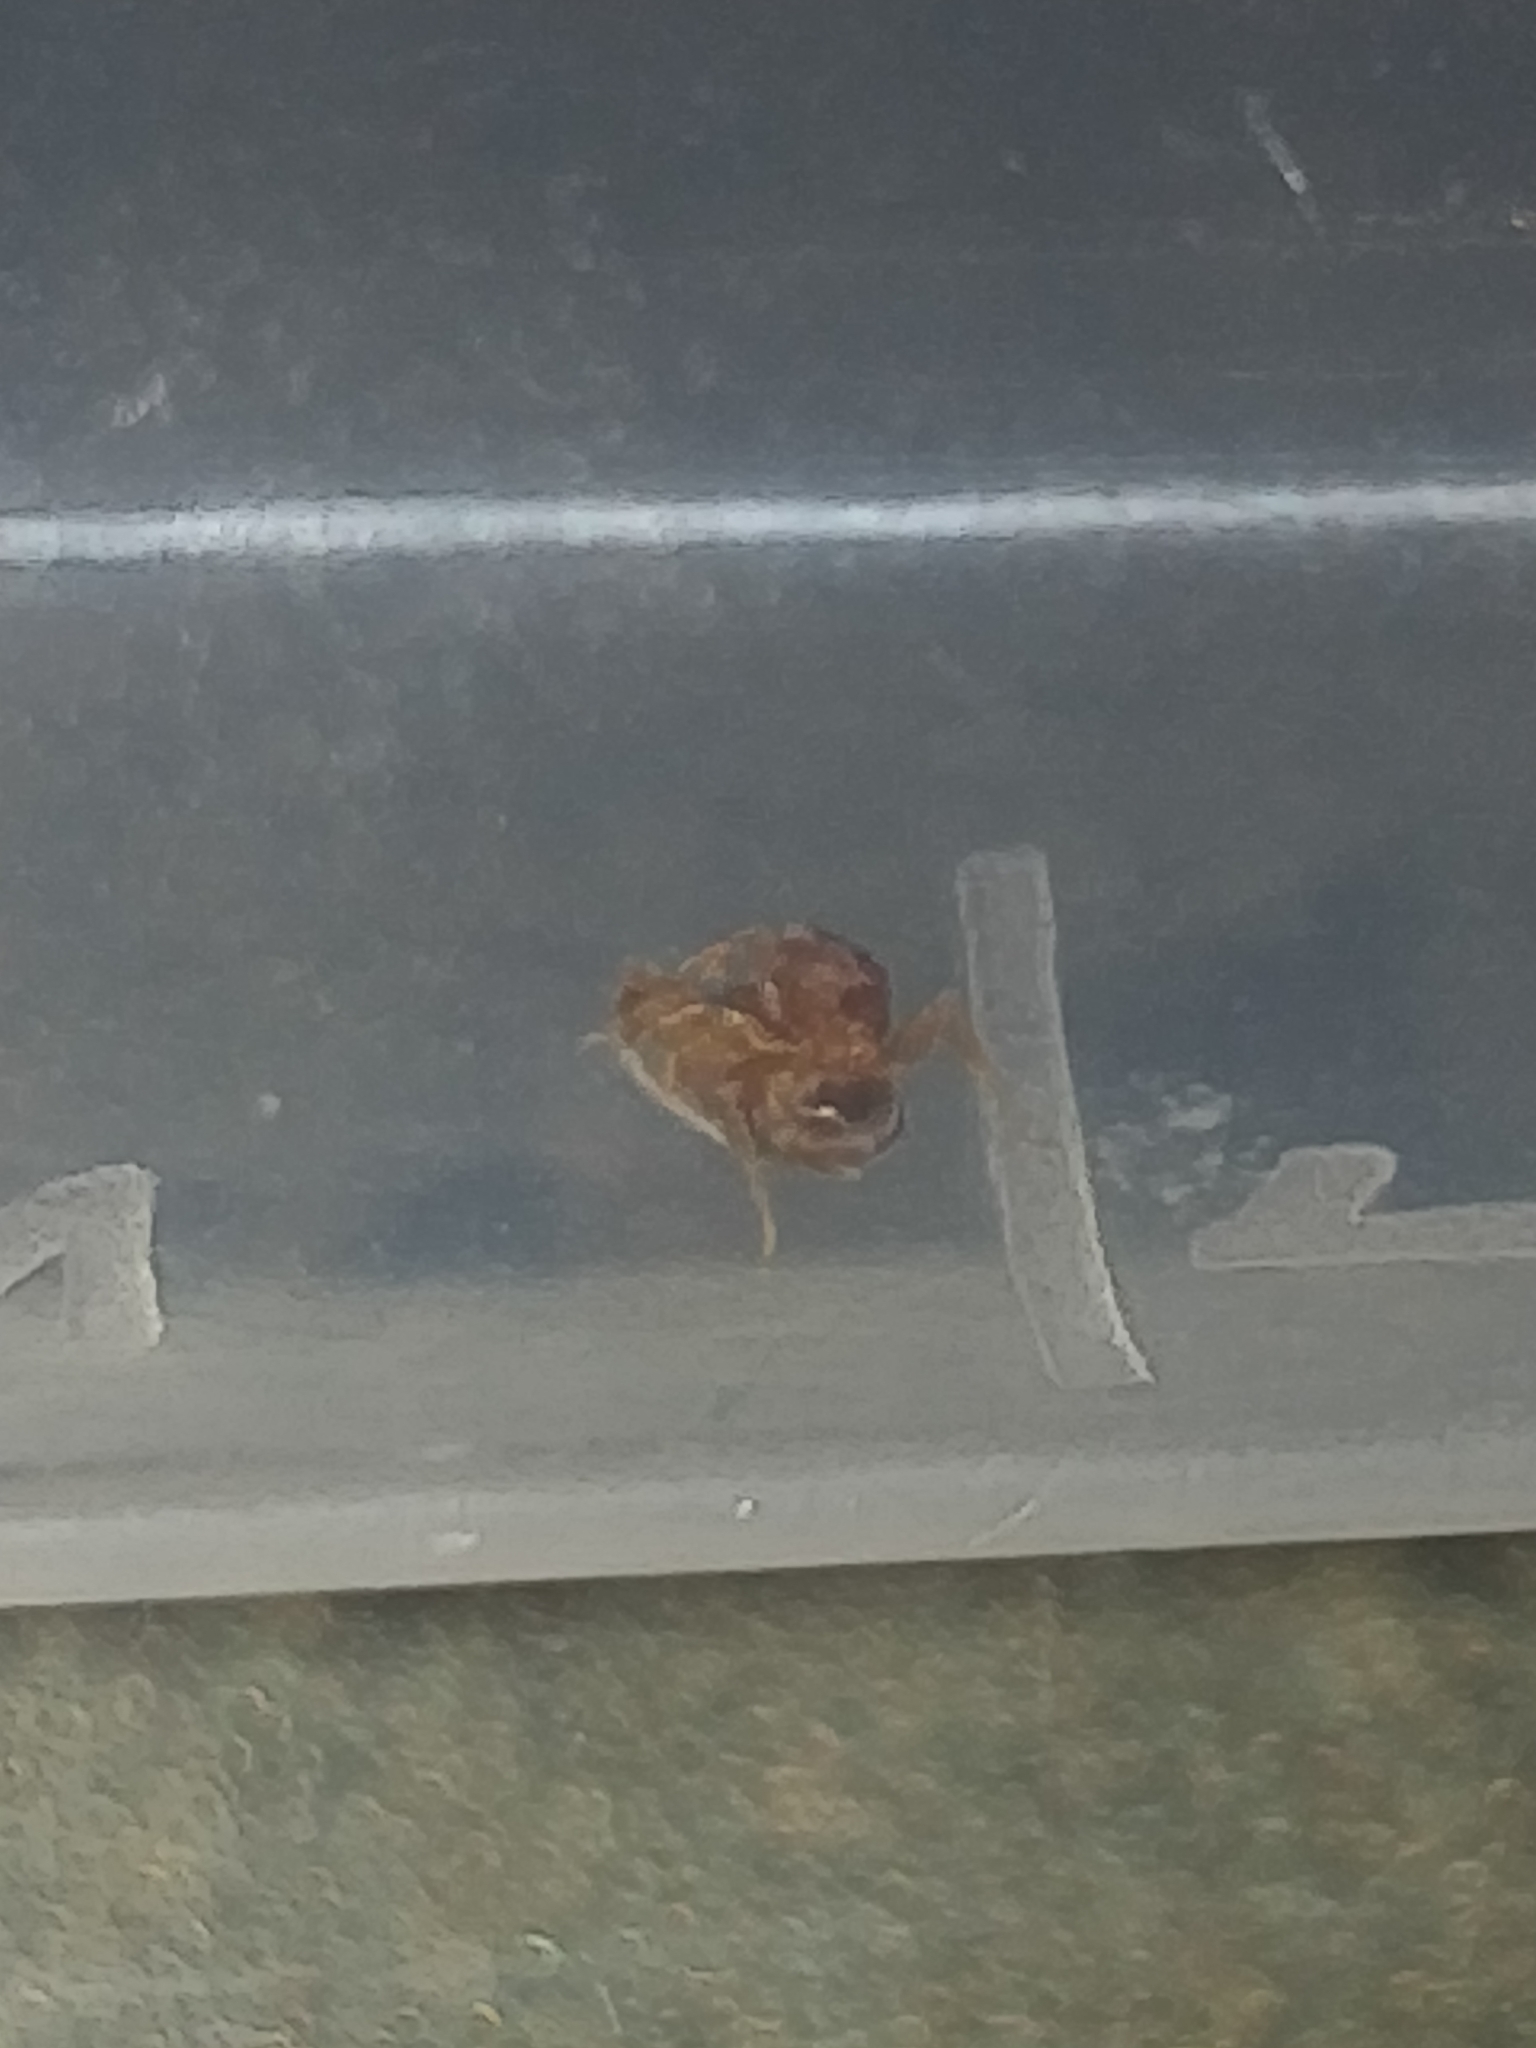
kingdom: Animalia
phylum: Arthropoda
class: Insecta
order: Hymenoptera
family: Formicidae
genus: Brachymyrmex
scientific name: Brachymyrmex depilis
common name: Hairless rover ant
